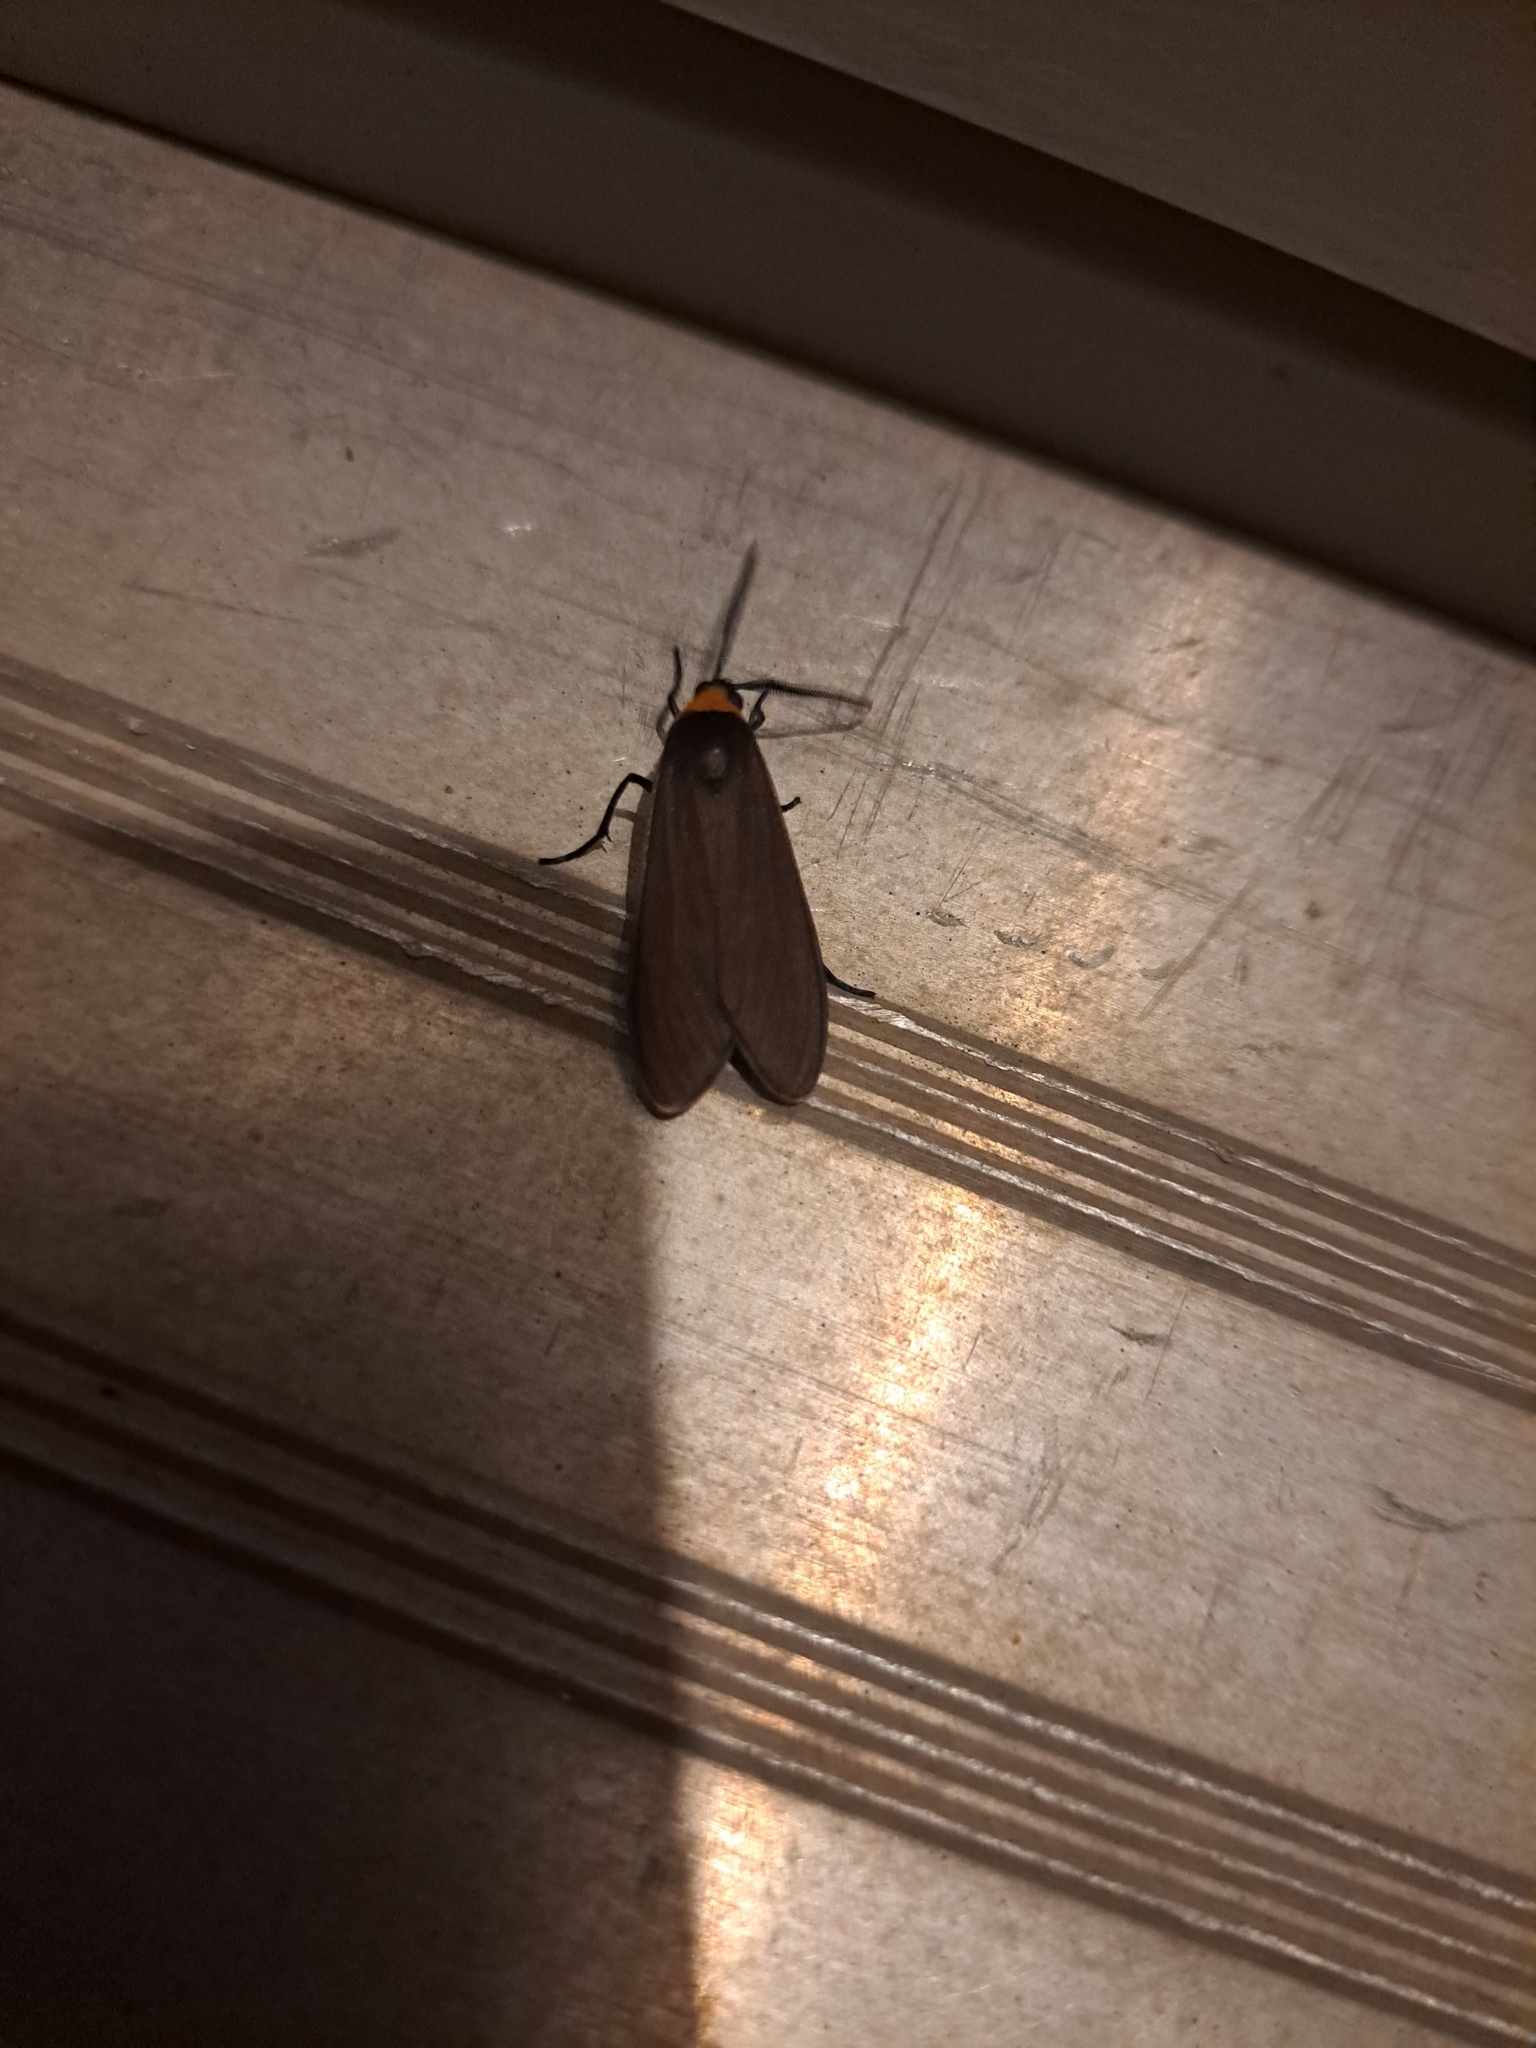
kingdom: Animalia
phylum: Arthropoda
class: Insecta
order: Lepidoptera
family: Erebidae
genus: Cisseps
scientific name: Cisseps fulvicollis
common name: Yellow-collared scape moth
